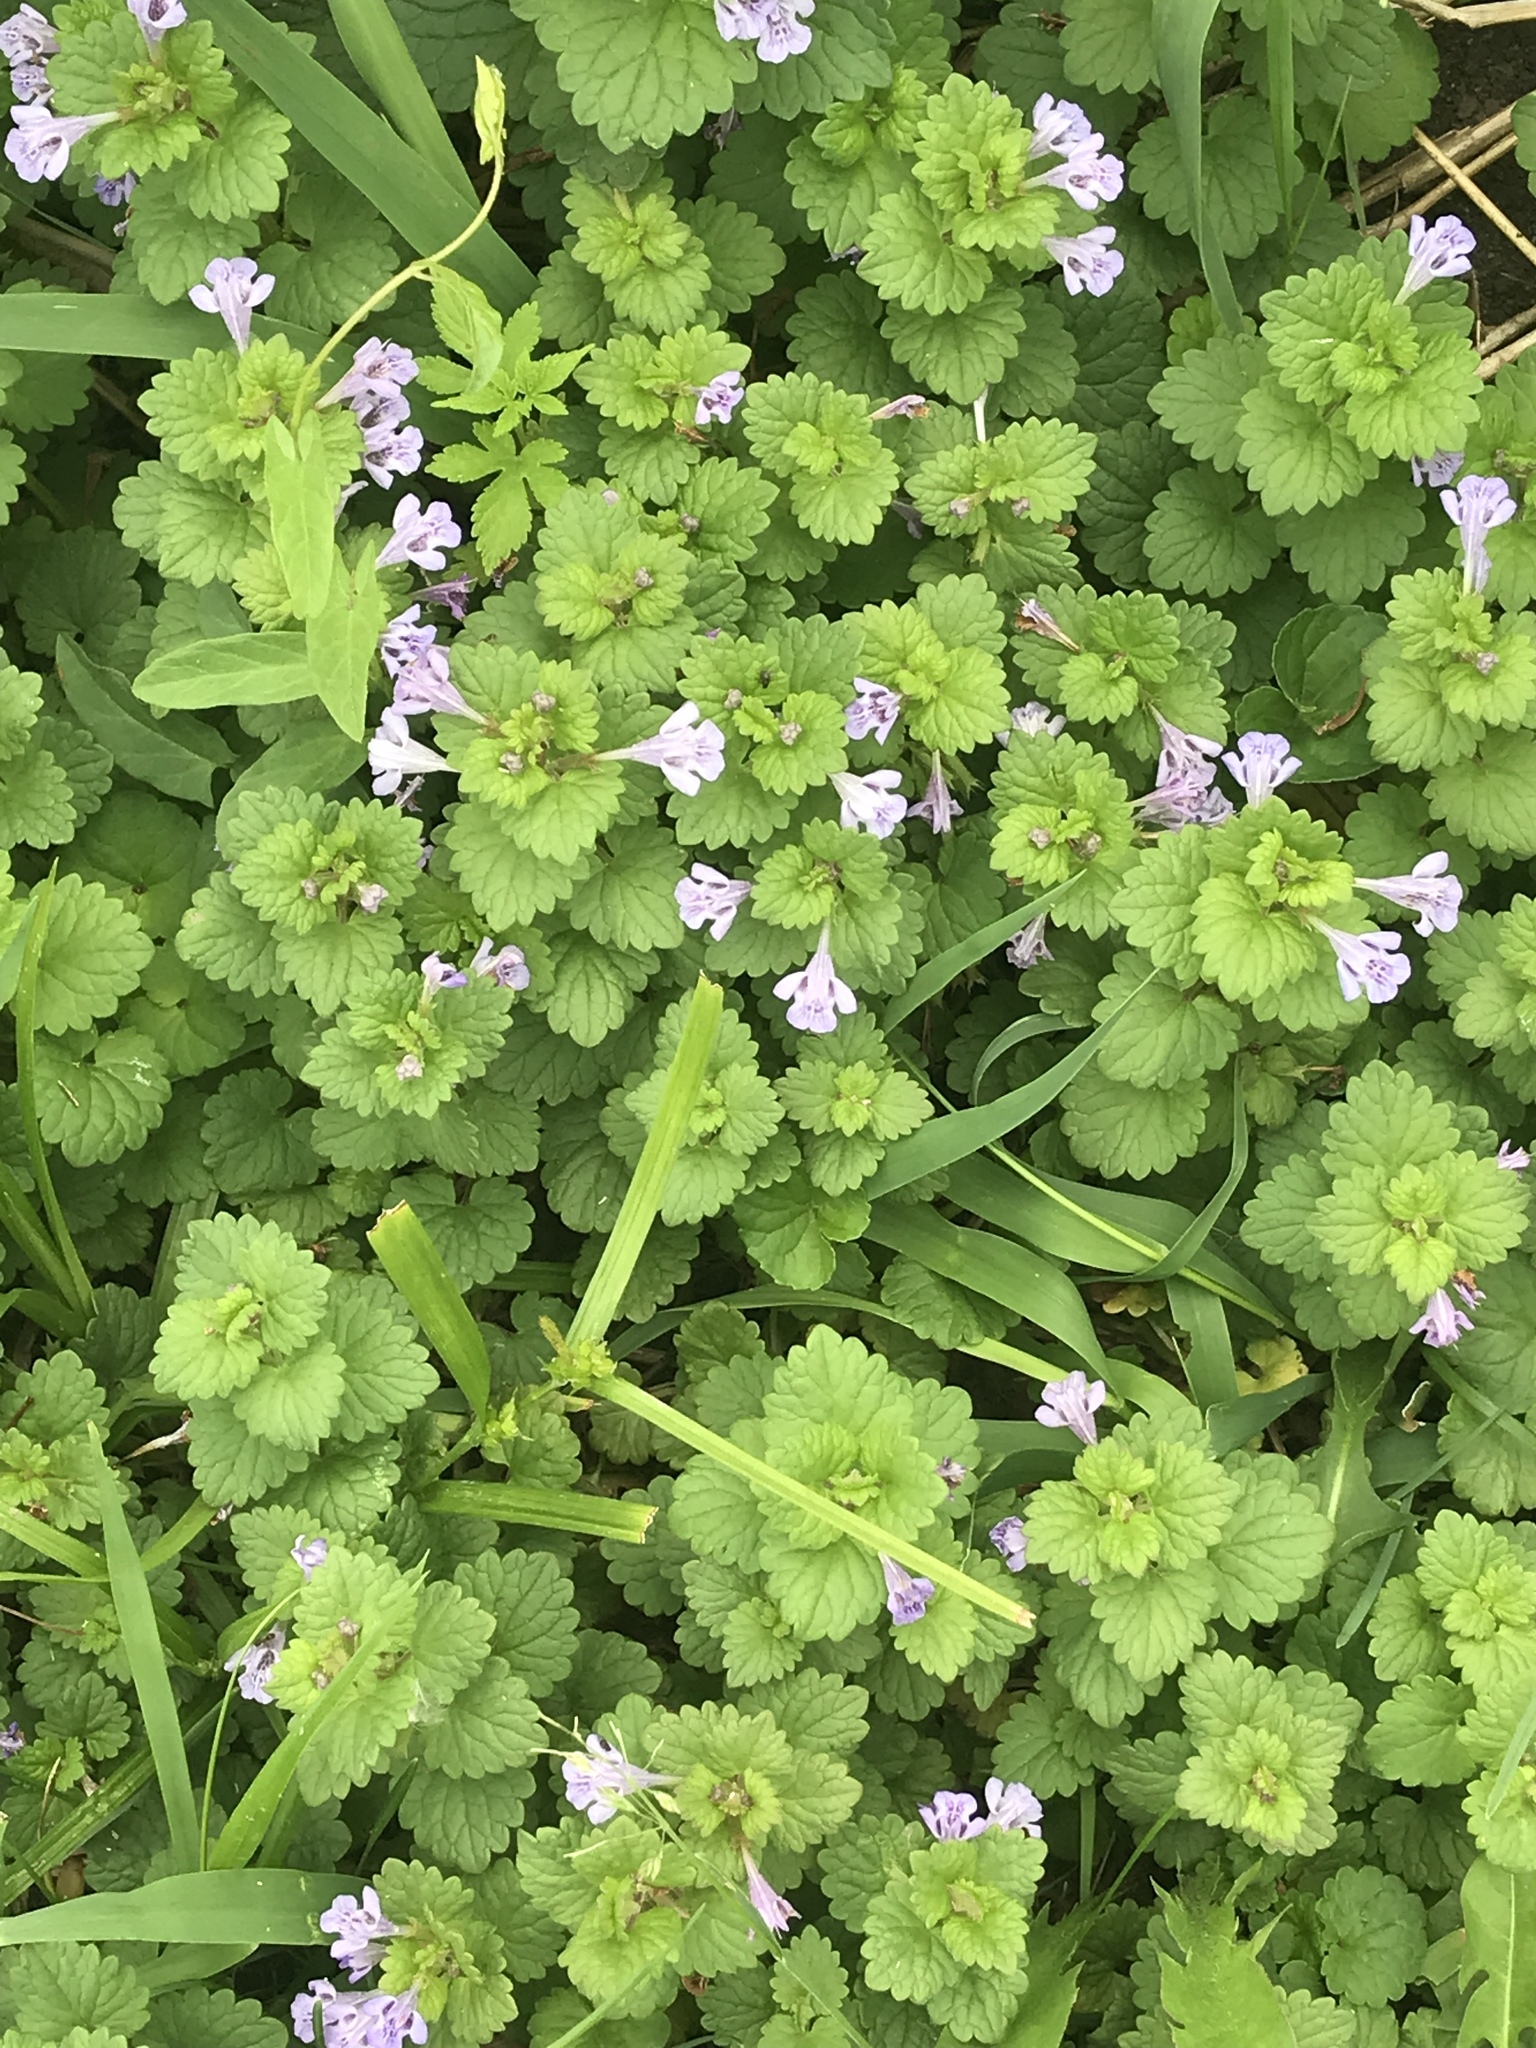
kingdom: Plantae
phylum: Tracheophyta
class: Magnoliopsida
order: Lamiales
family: Lamiaceae
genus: Glechoma
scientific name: Glechoma hederacea
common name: Ground ivy
